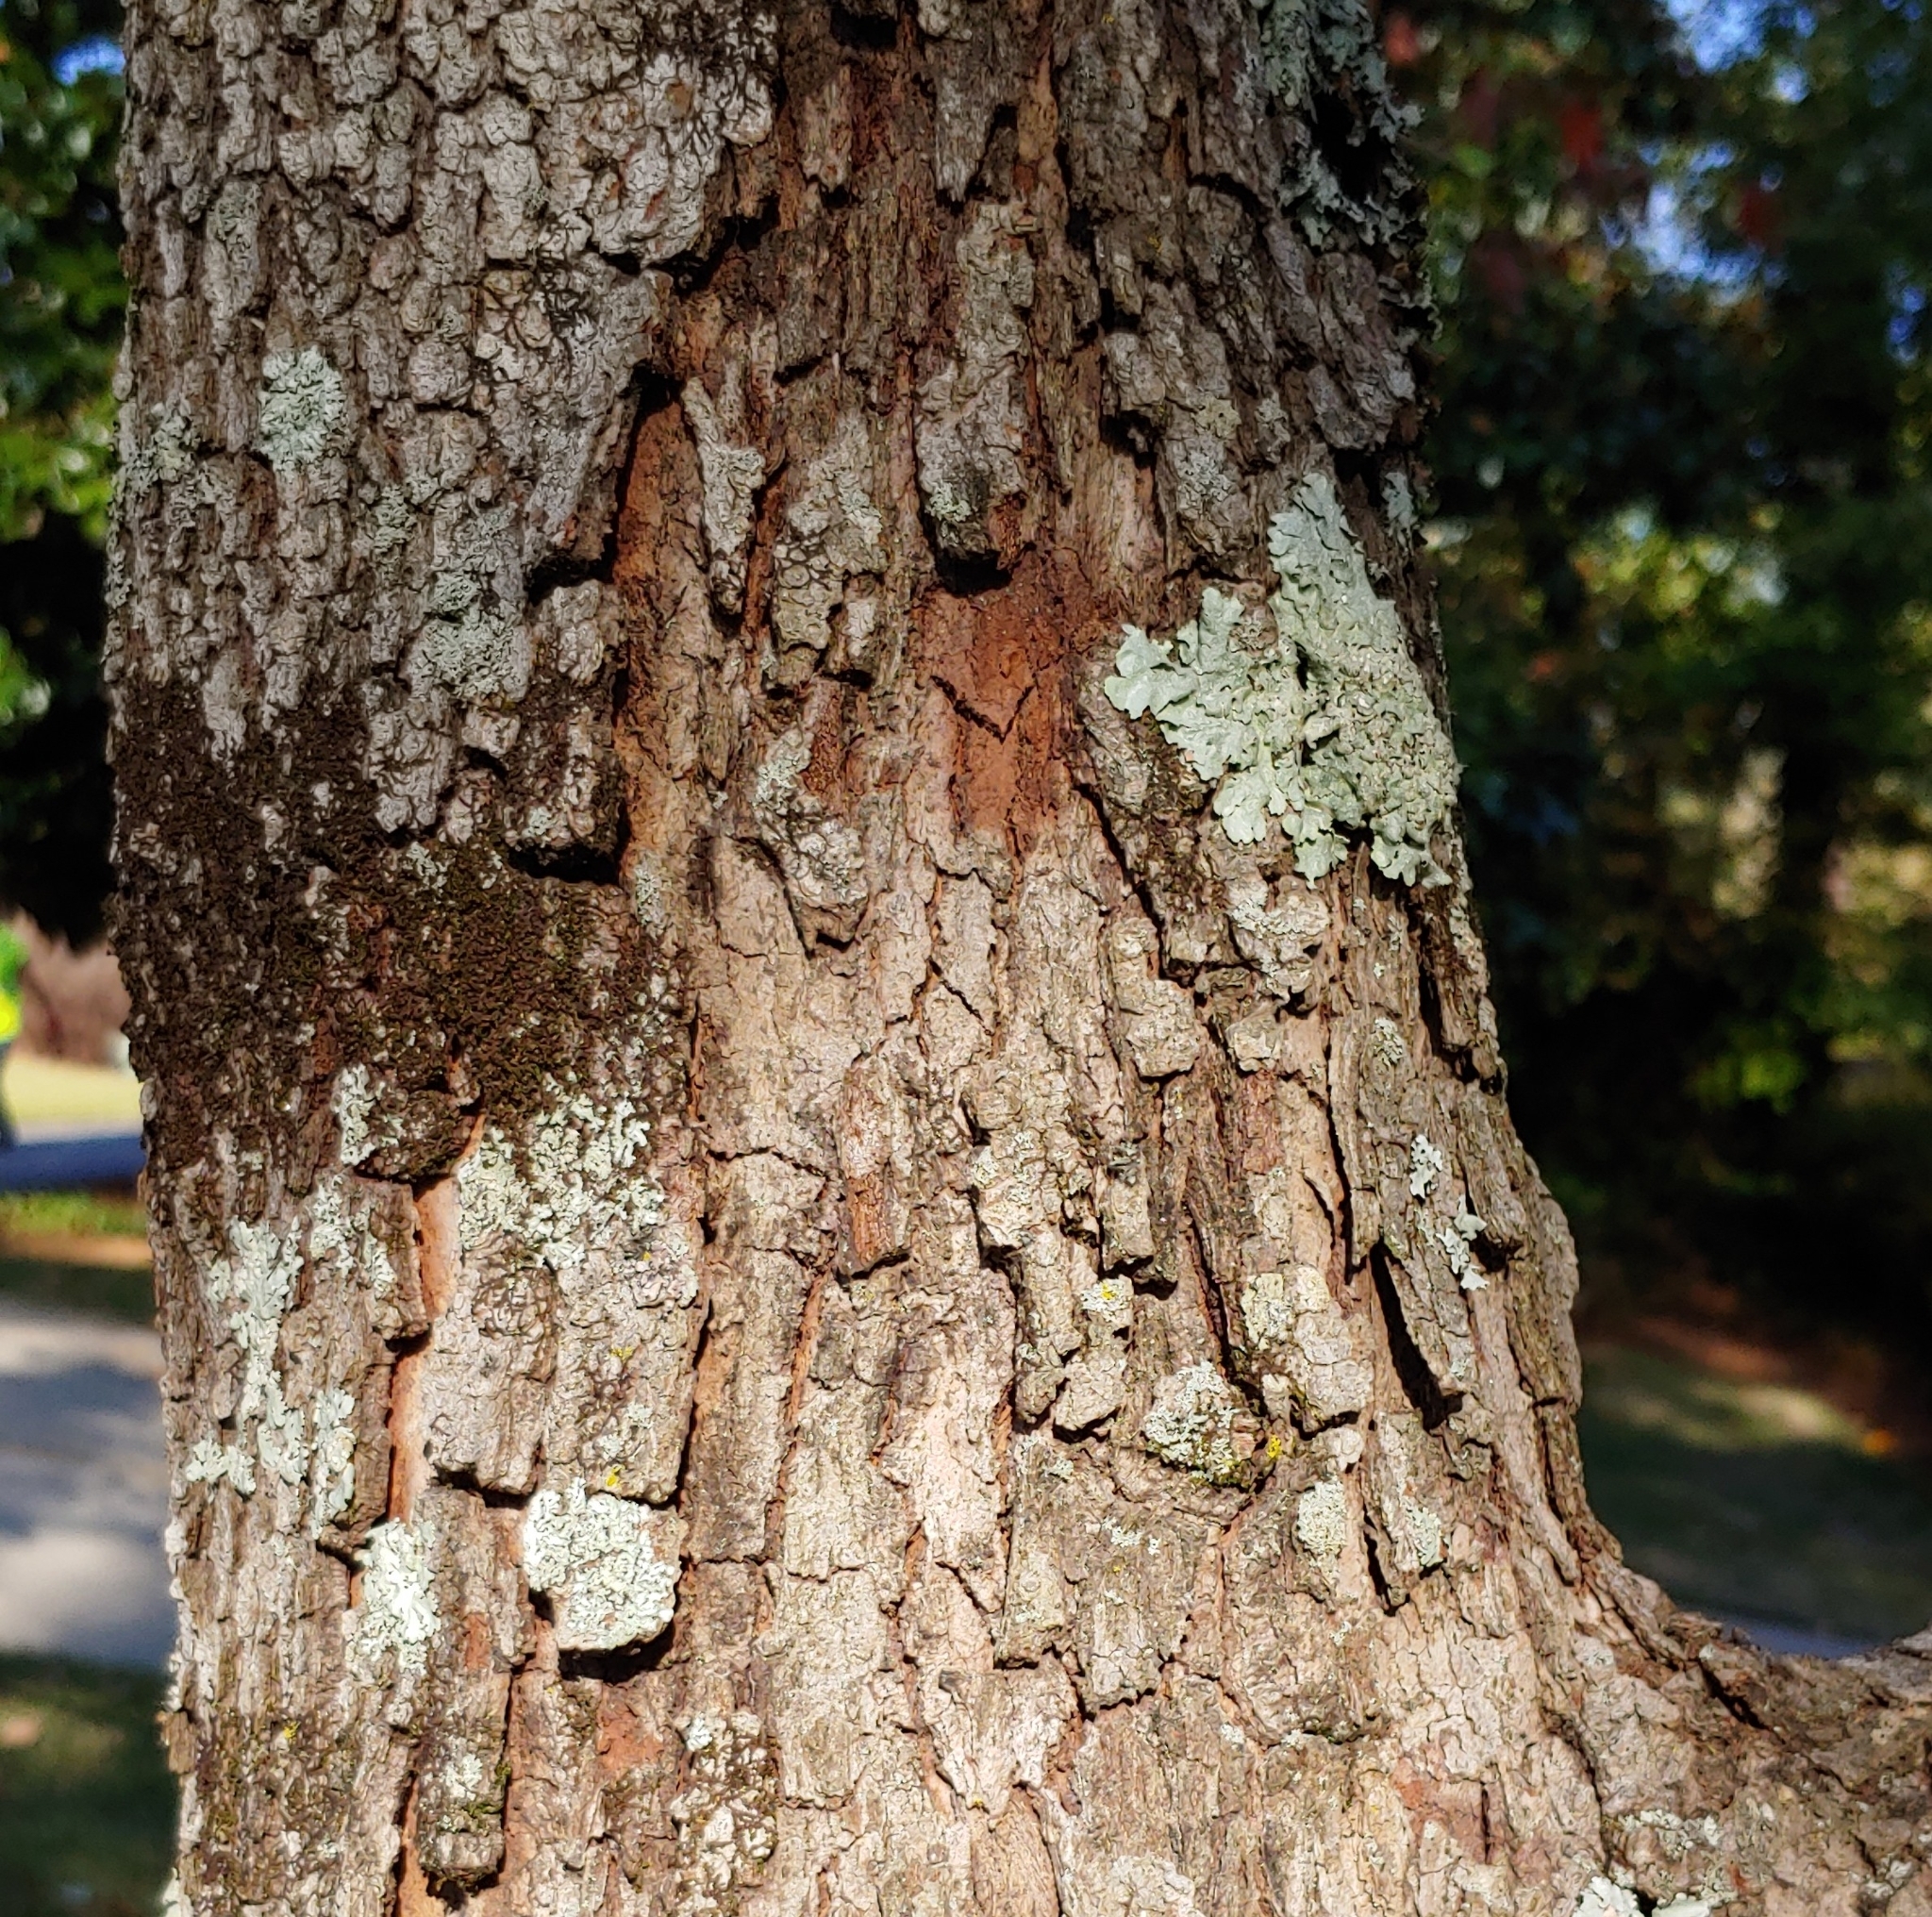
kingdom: Plantae
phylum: Marchantiophyta
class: Jungermanniopsida
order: Porellales
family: Frullaniaceae
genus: Frullania
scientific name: Frullania eboracensis
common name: New york scalewort
